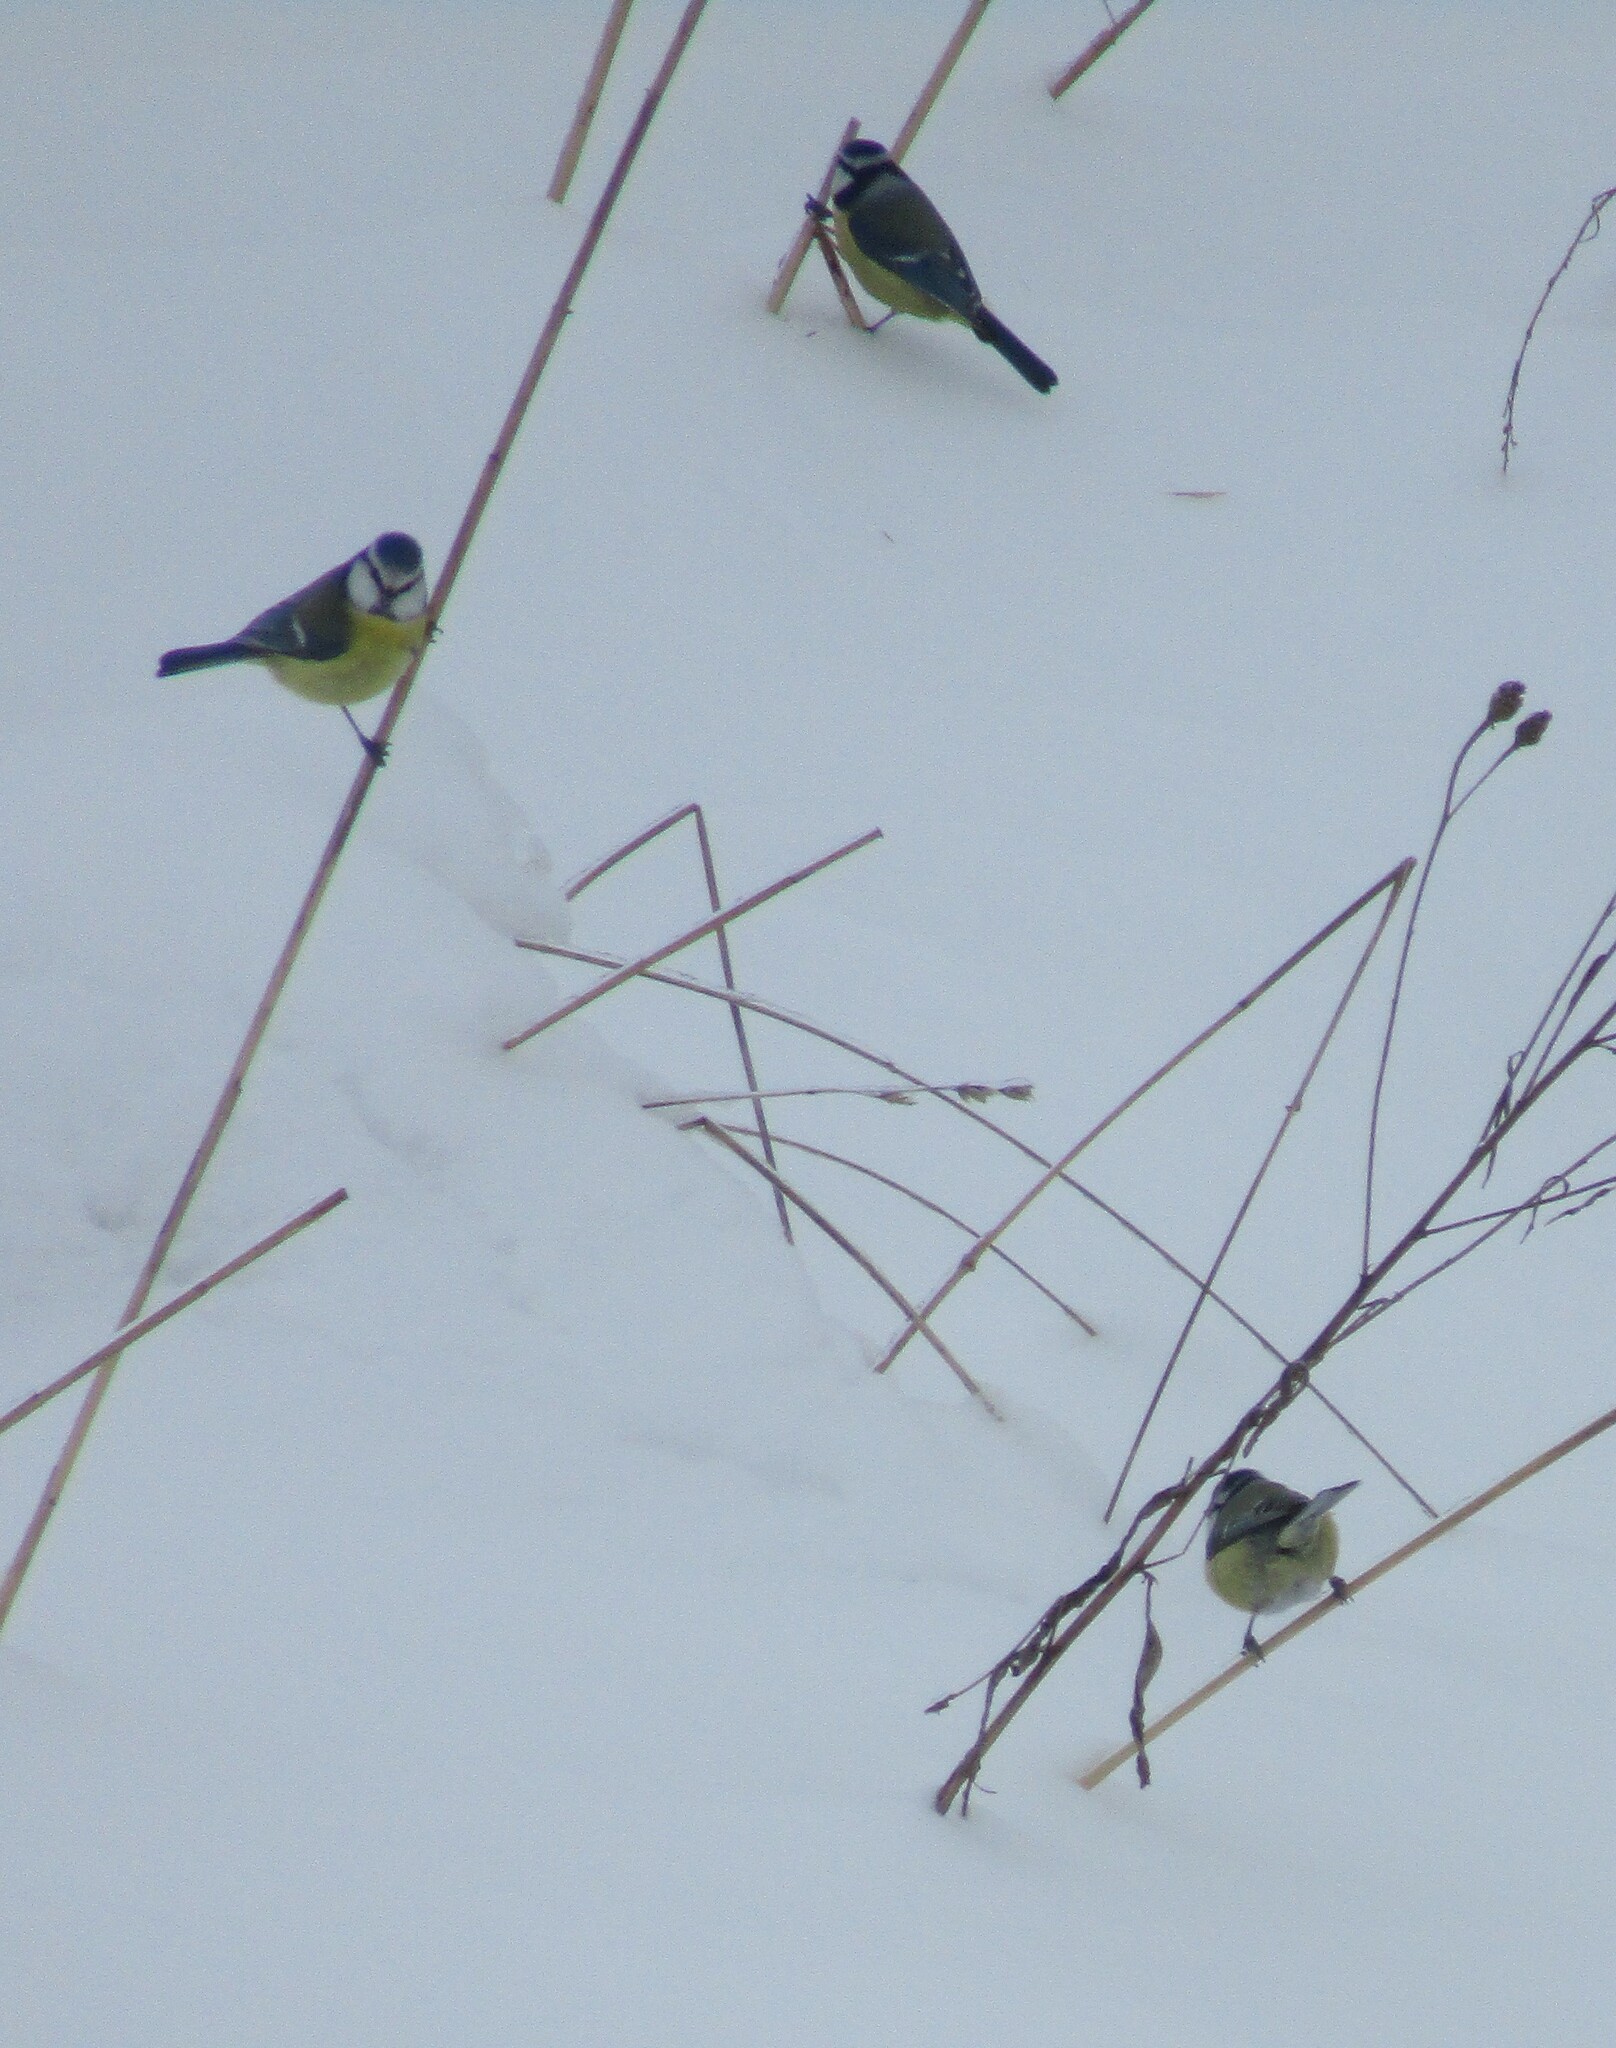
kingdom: Animalia
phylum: Chordata
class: Aves
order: Passeriformes
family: Paridae
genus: Cyanistes
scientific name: Cyanistes caeruleus
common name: Eurasian blue tit
